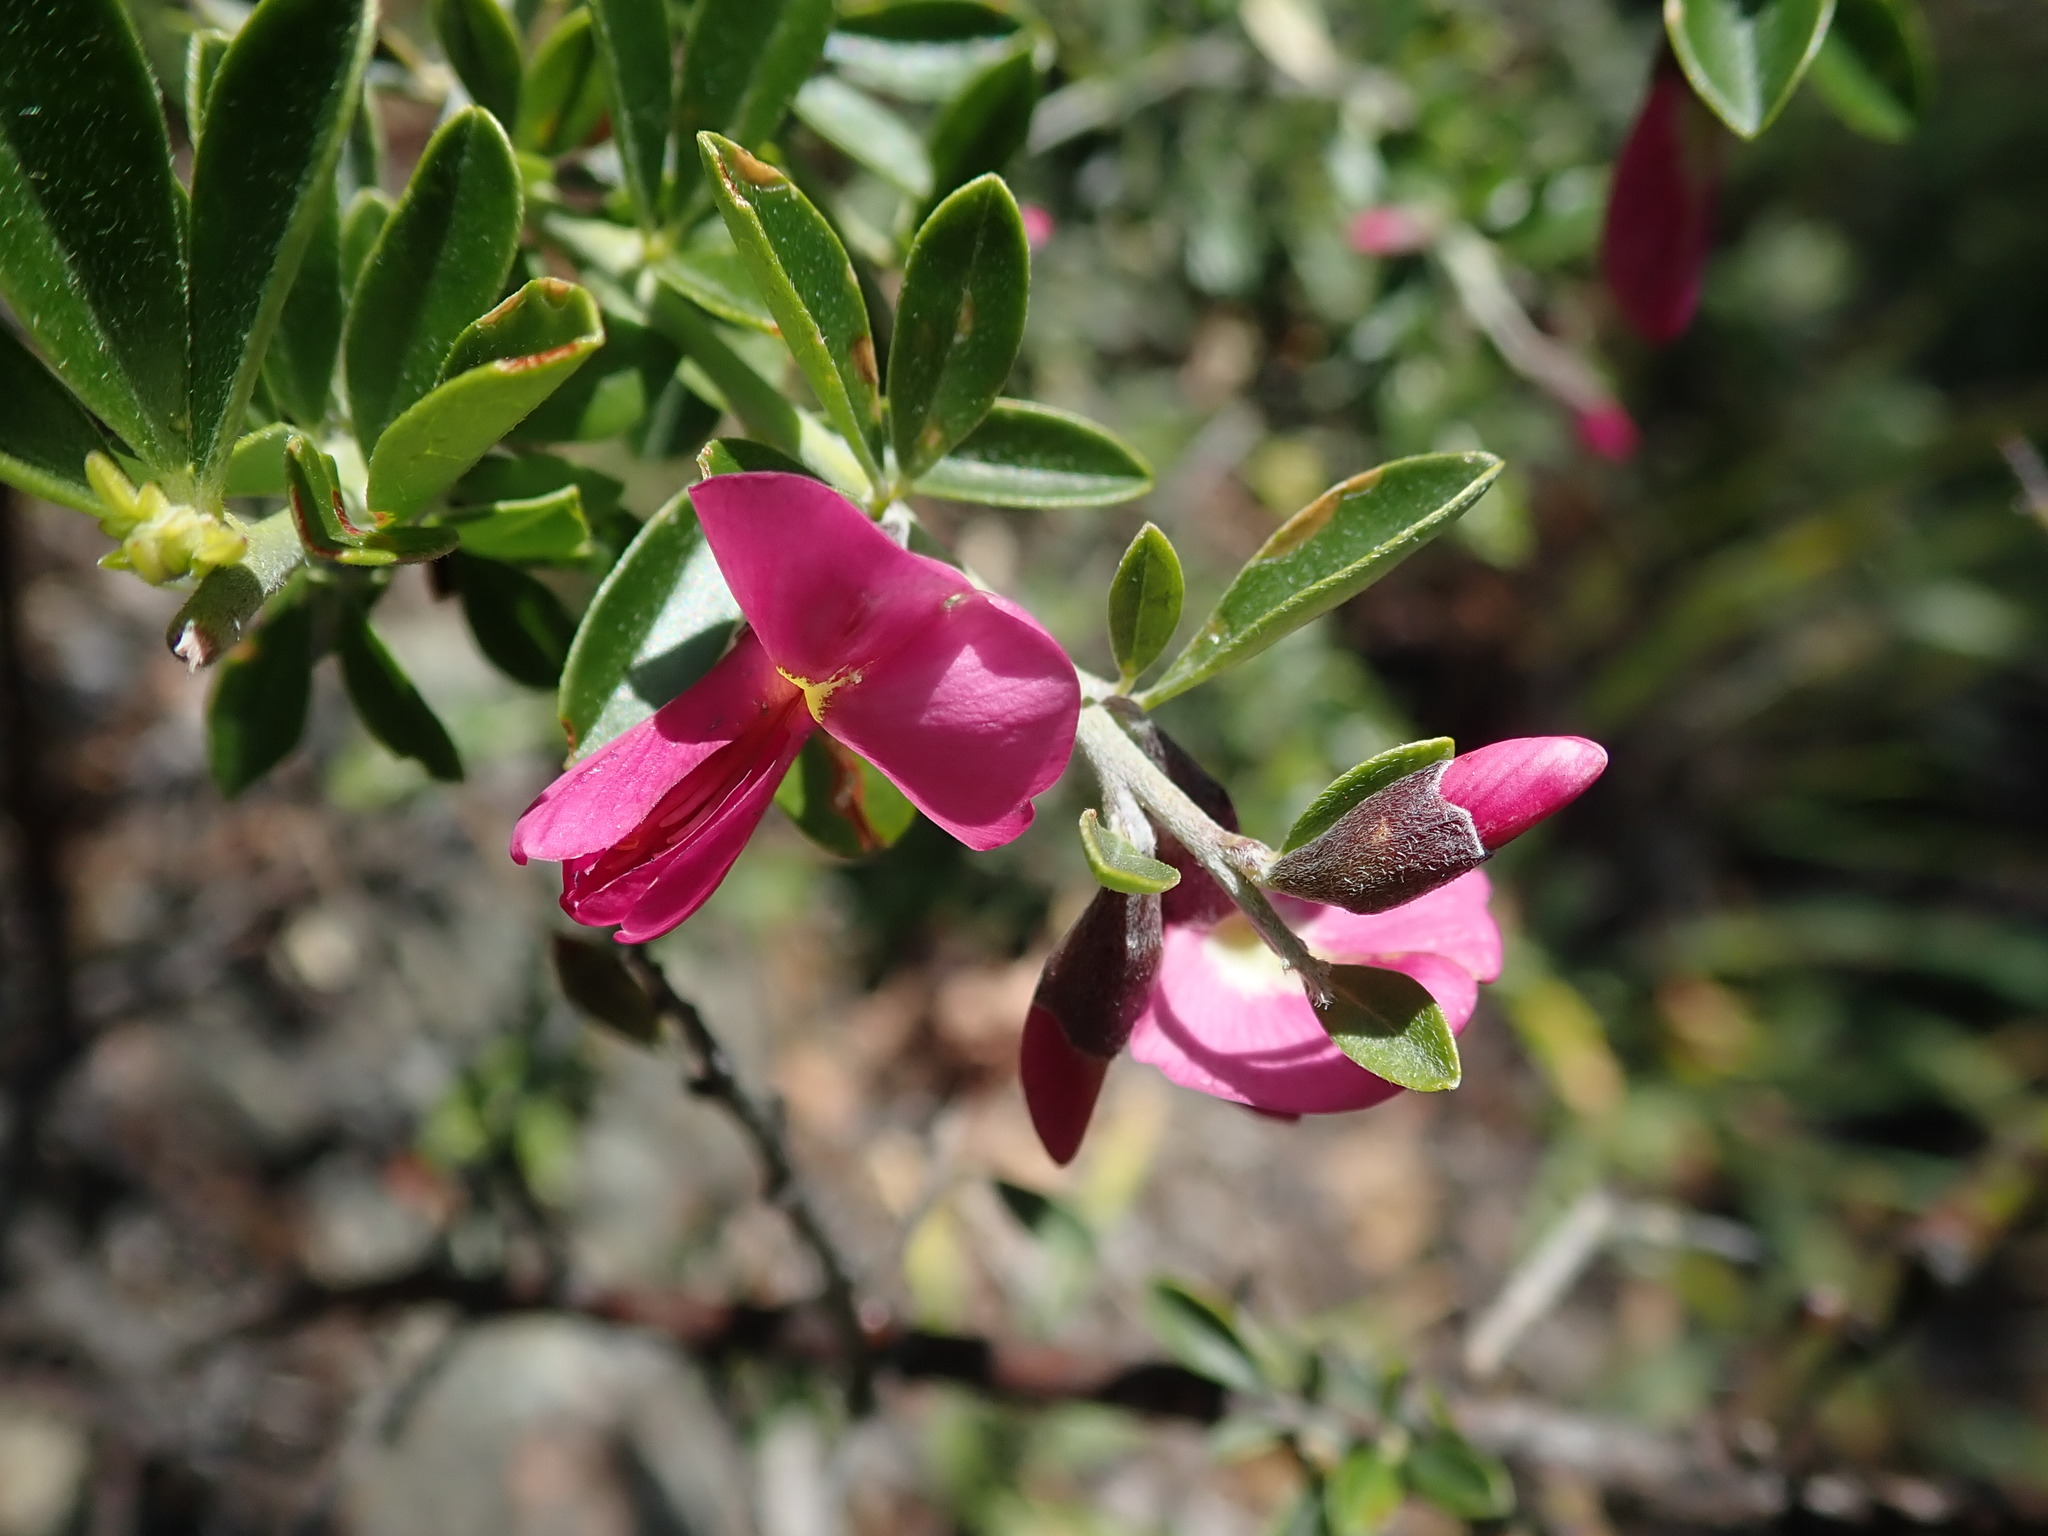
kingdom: Plantae
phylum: Tracheophyta
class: Magnoliopsida
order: Fabales
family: Fabaceae
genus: Pickeringia
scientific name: Pickeringia montana
